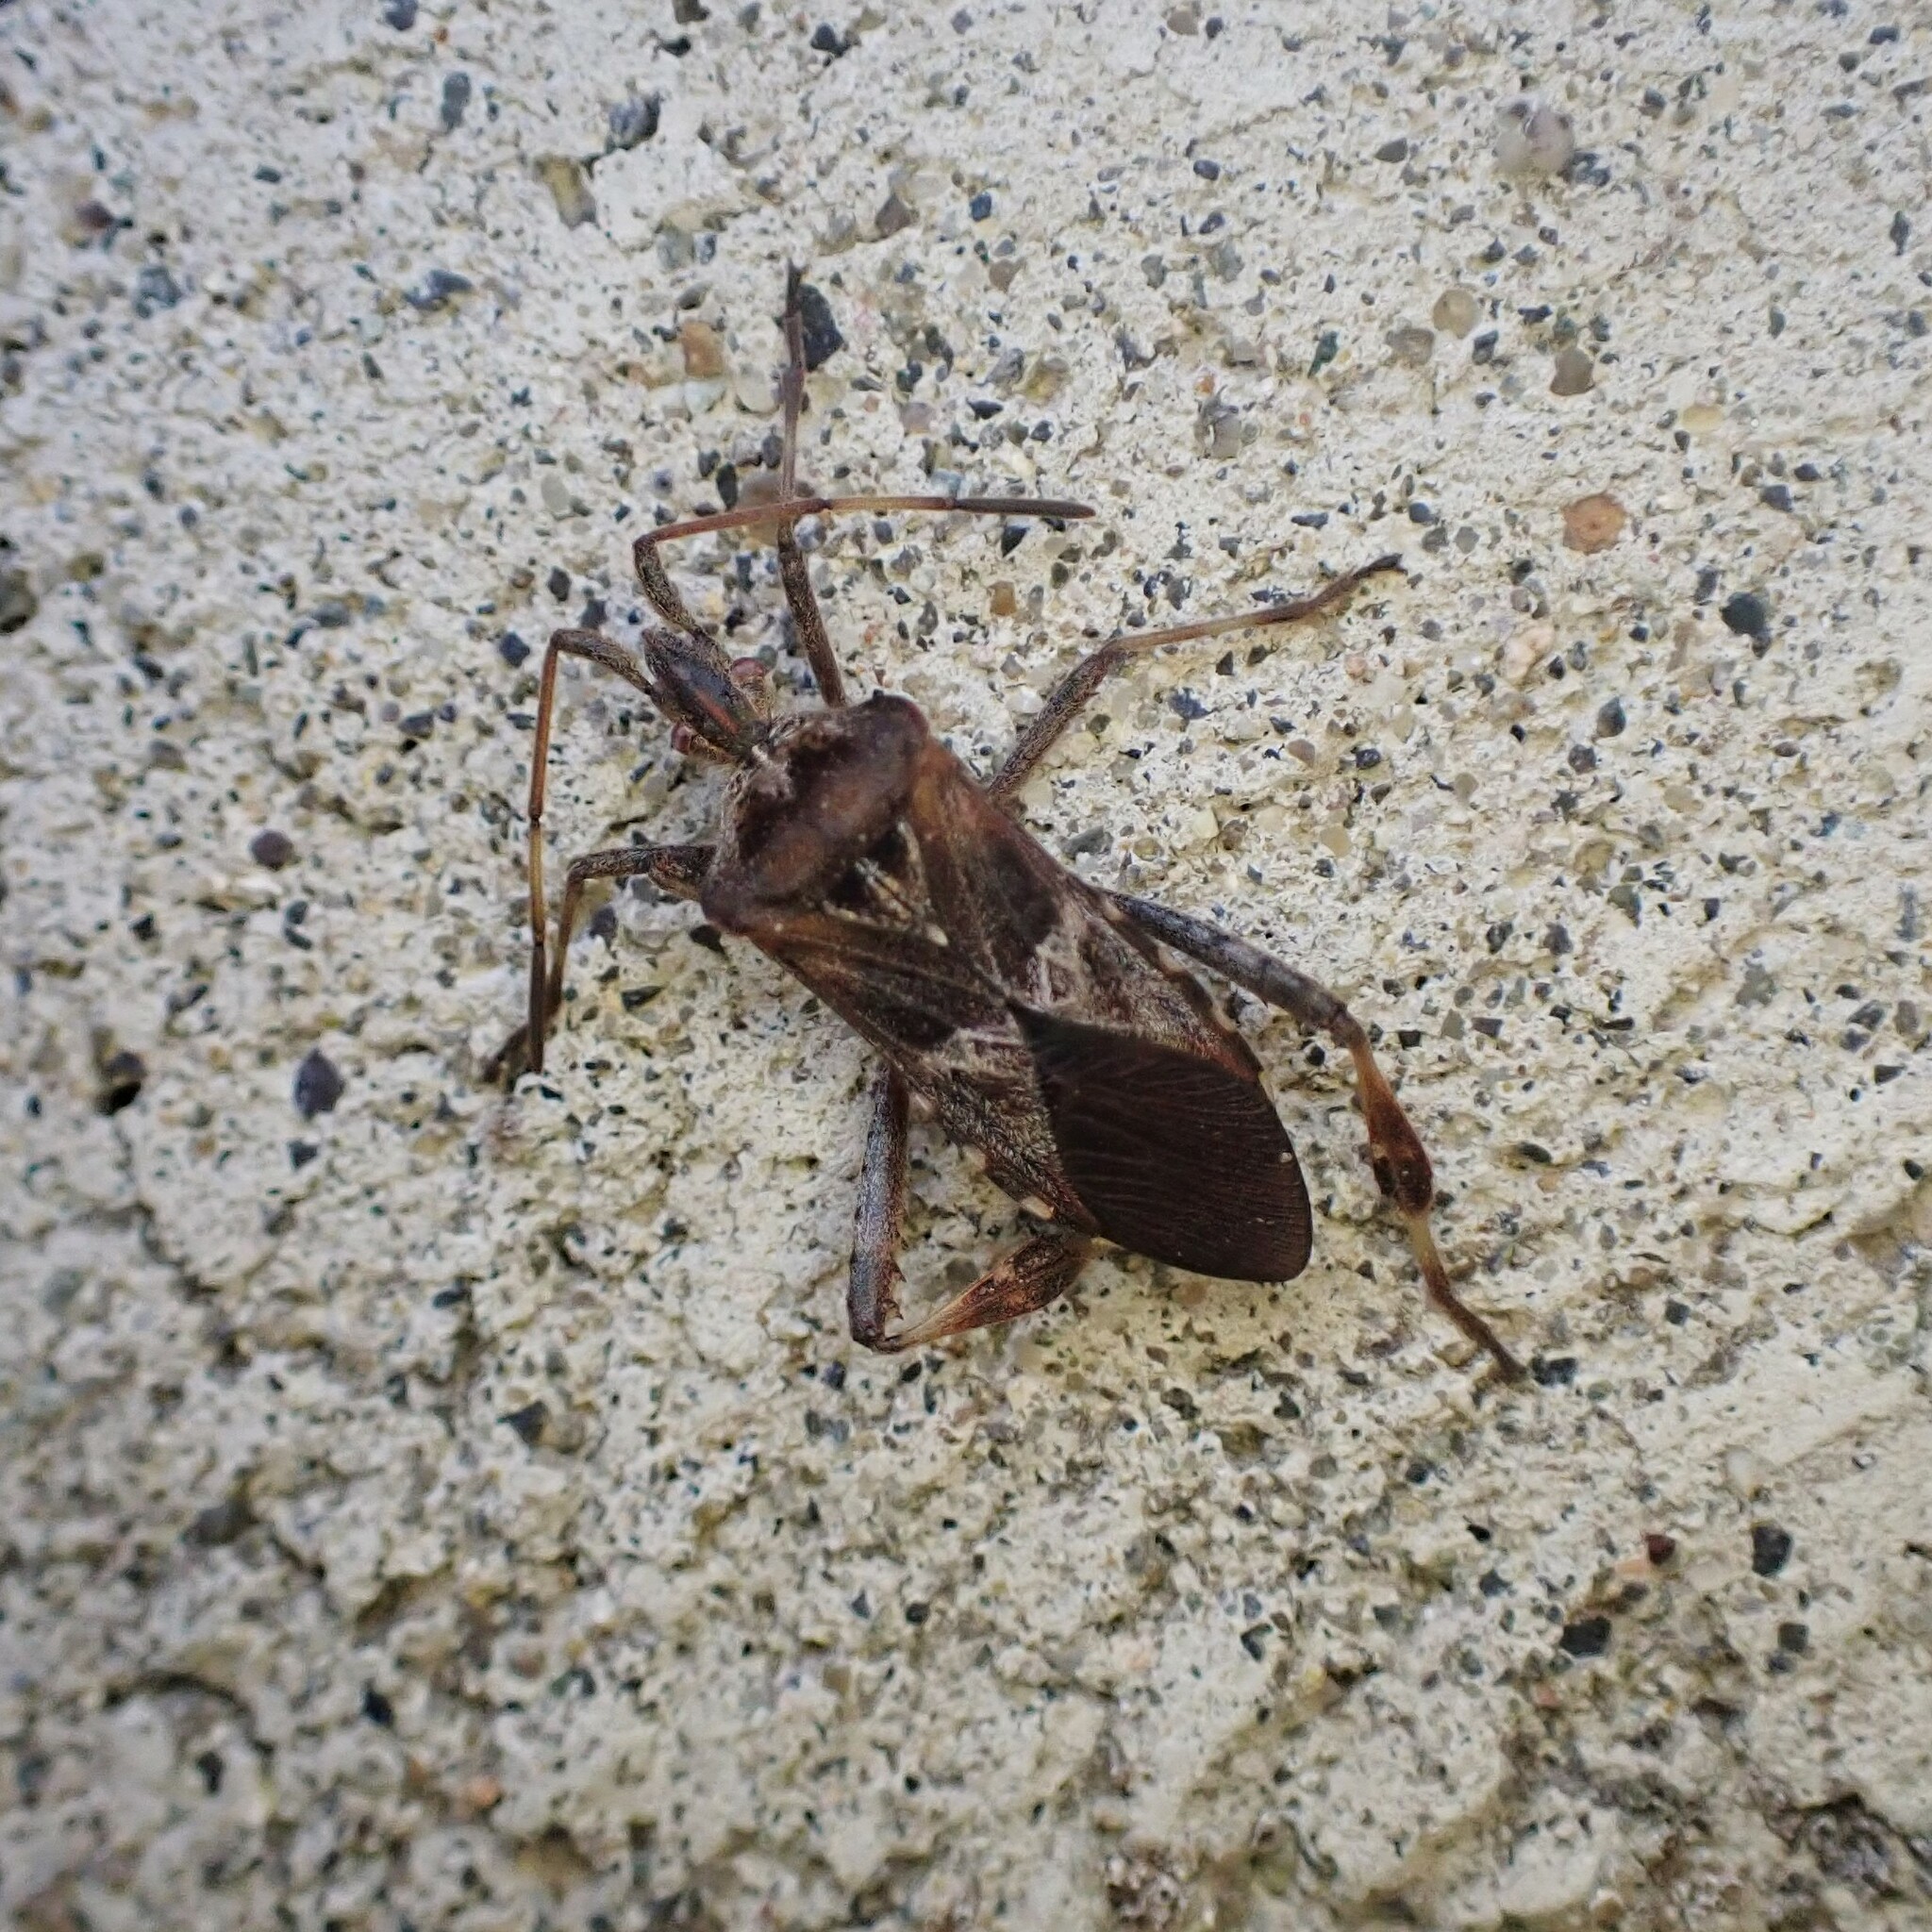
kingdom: Animalia
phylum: Arthropoda
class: Insecta
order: Hemiptera
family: Coreidae
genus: Leptoglossus
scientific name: Leptoglossus occidentalis
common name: Western conifer-seed bug
